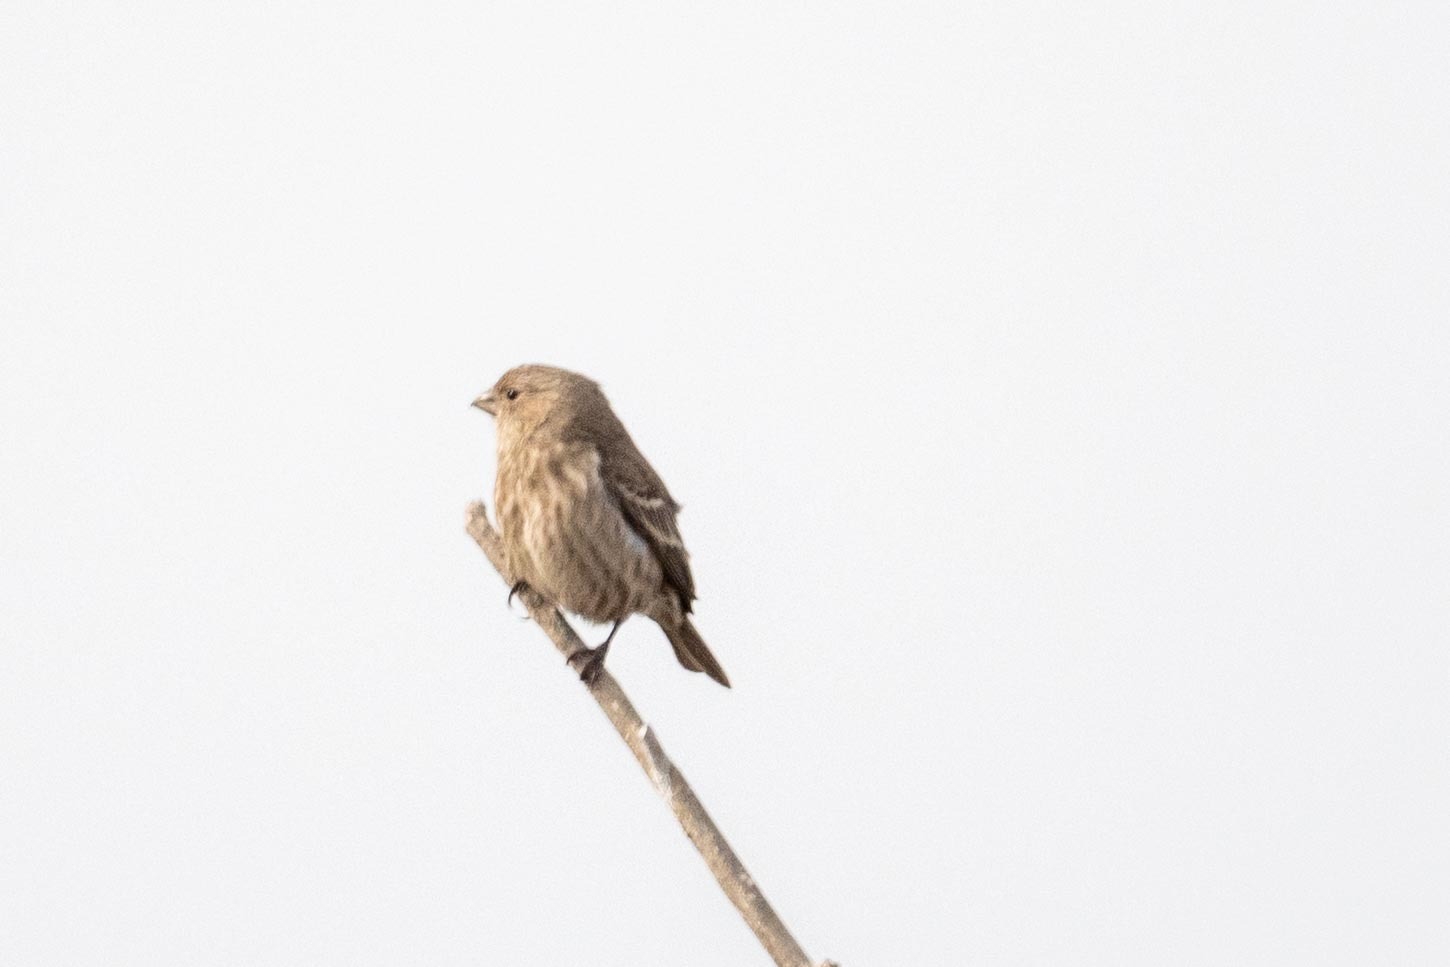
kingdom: Animalia
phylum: Chordata
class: Aves
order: Passeriformes
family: Fringillidae
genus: Haemorhous
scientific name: Haemorhous mexicanus
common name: House finch
